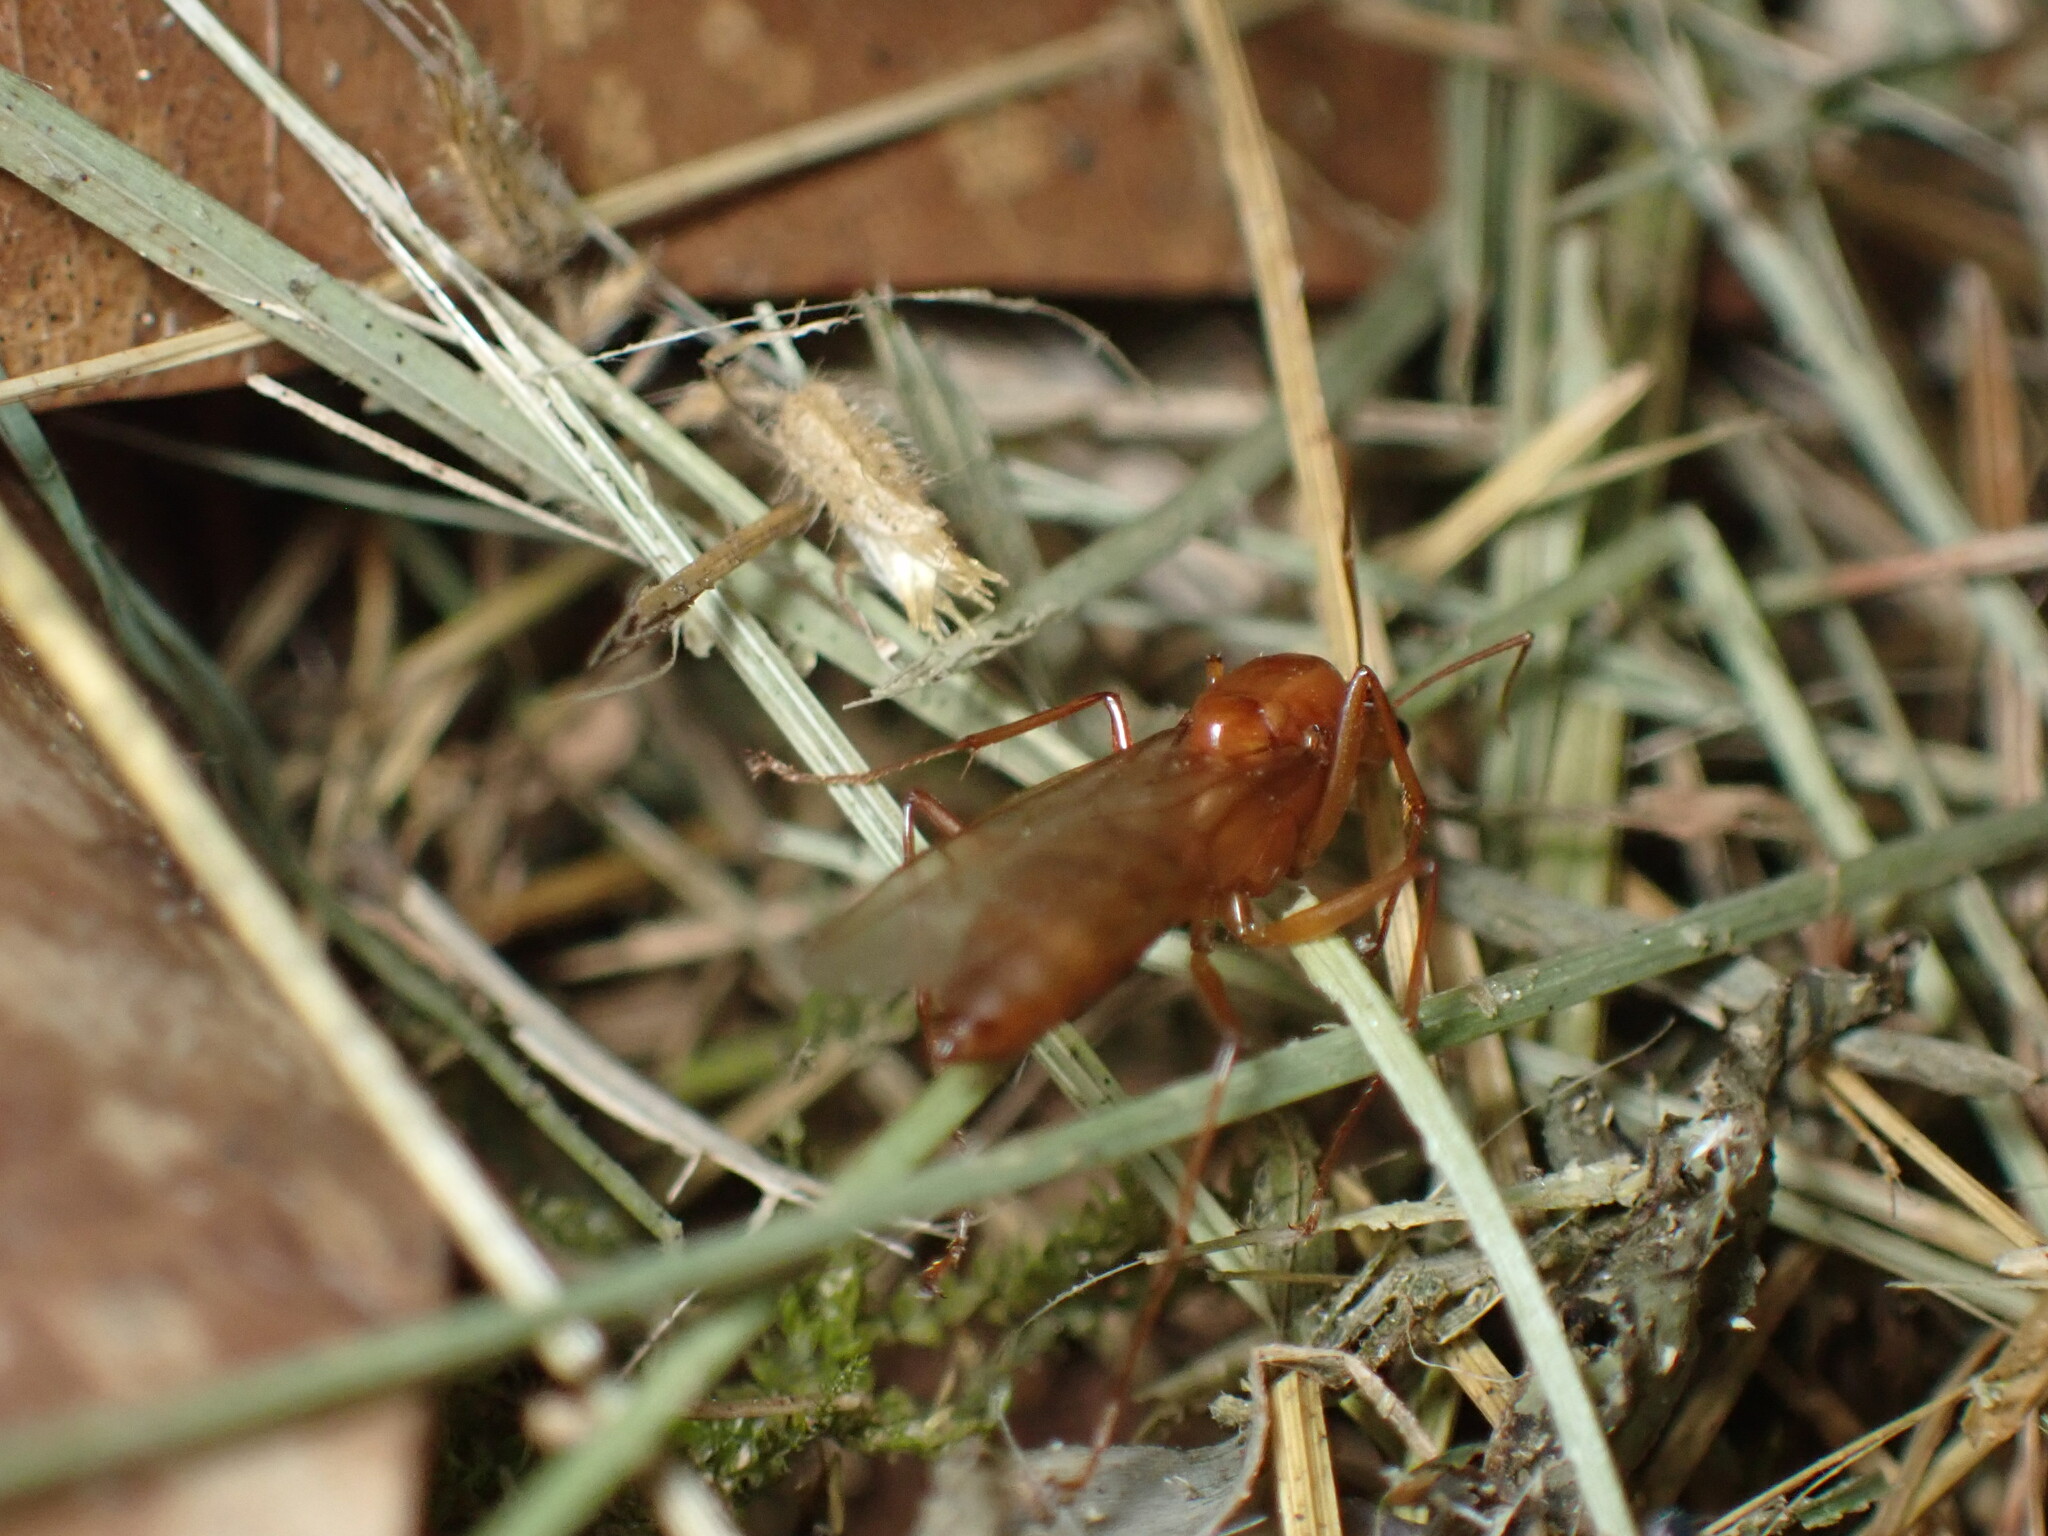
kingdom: Animalia
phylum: Arthropoda
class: Insecta
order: Hymenoptera
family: Formicidae
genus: Camponotus
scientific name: Camponotus castaneus
